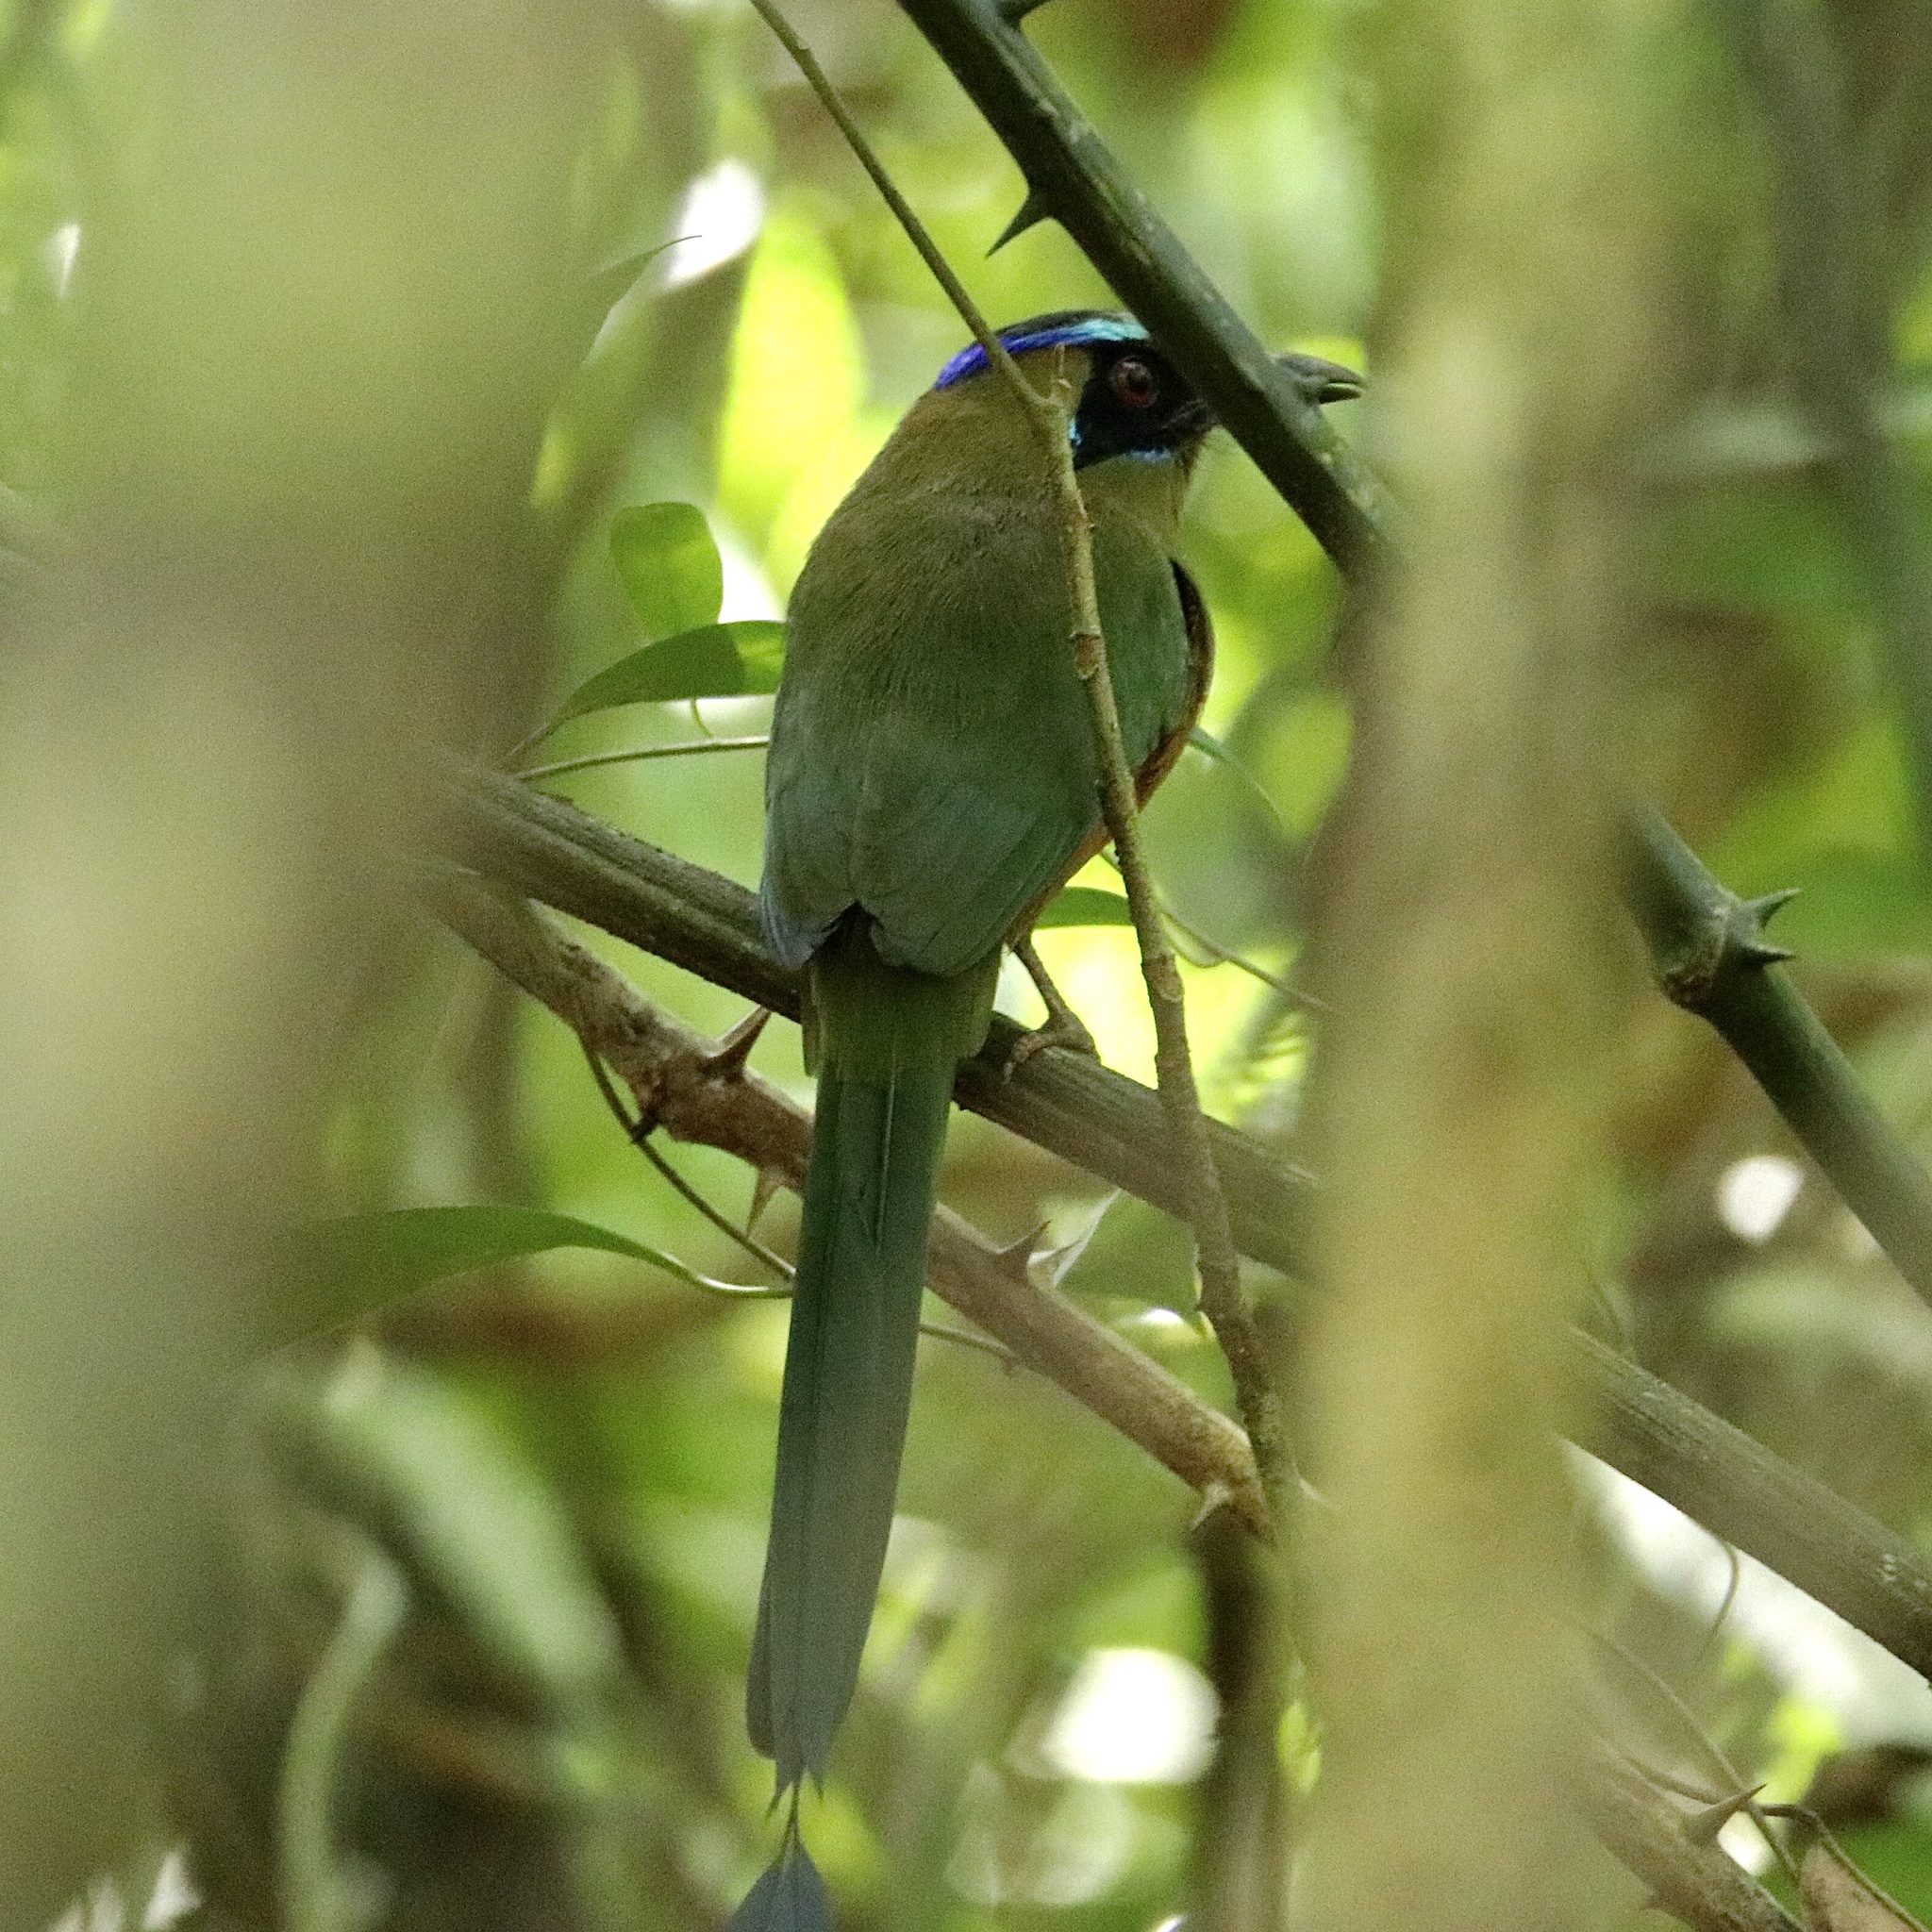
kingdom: Animalia
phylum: Chordata
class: Aves
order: Coraciiformes
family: Momotidae
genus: Momotus
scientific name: Momotus subrufescens
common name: Whooping motmot
